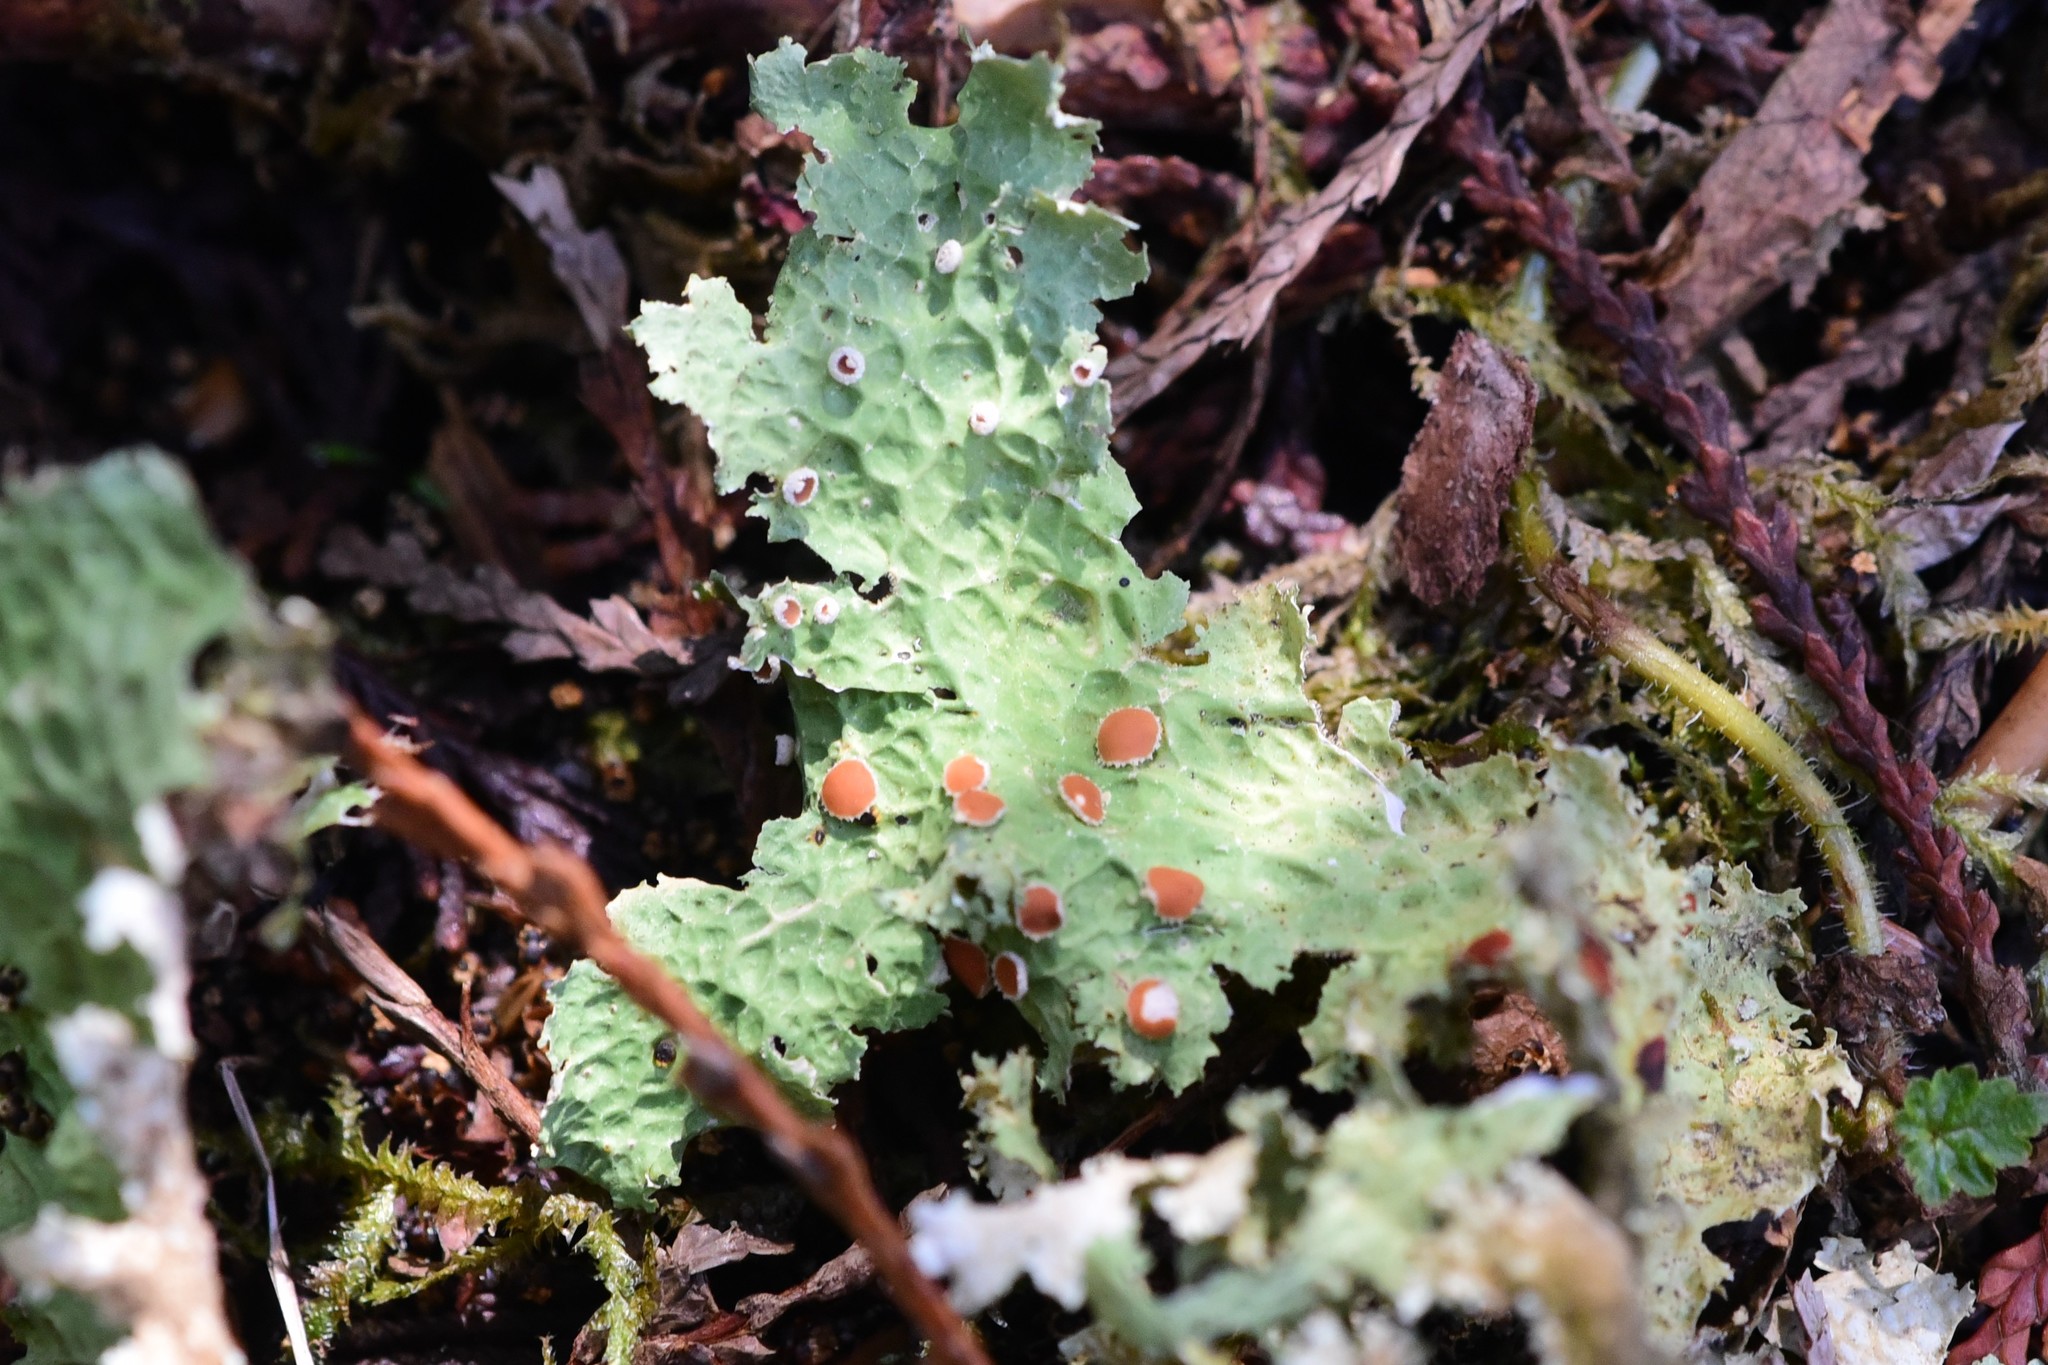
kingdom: Fungi
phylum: Ascomycota
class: Lecanoromycetes
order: Peltigerales
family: Lobariaceae
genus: Lobaria
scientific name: Lobaria oregana
